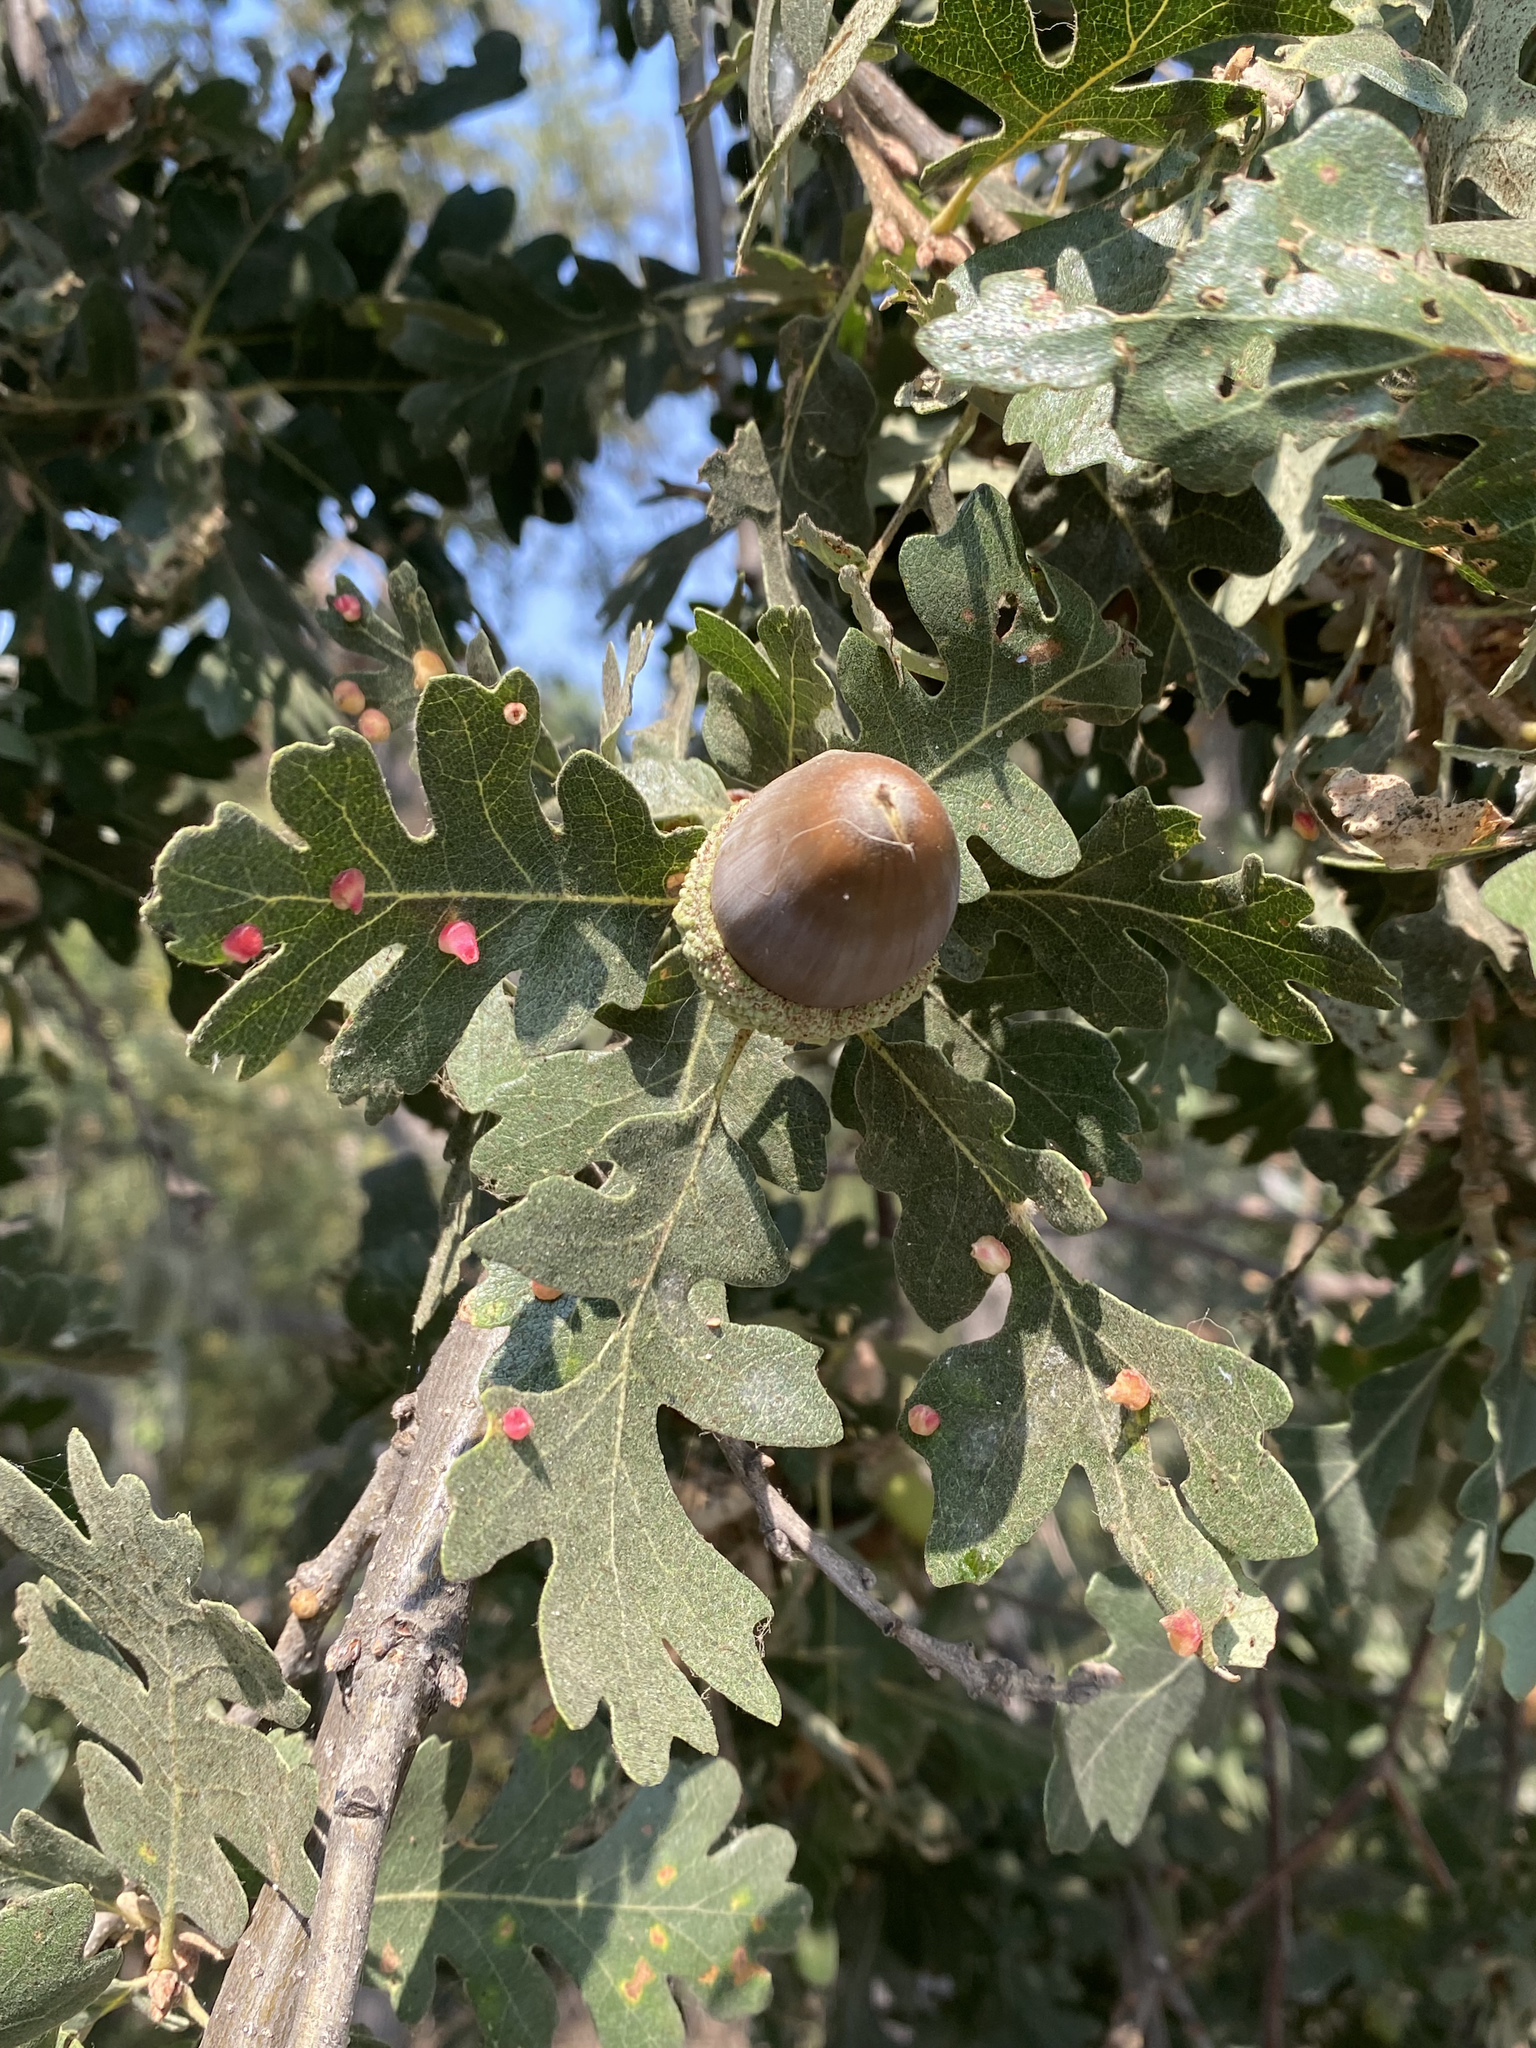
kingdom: Animalia
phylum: Arthropoda
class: Insecta
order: Hymenoptera
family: Cynipidae
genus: Andricus
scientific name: Andricus
